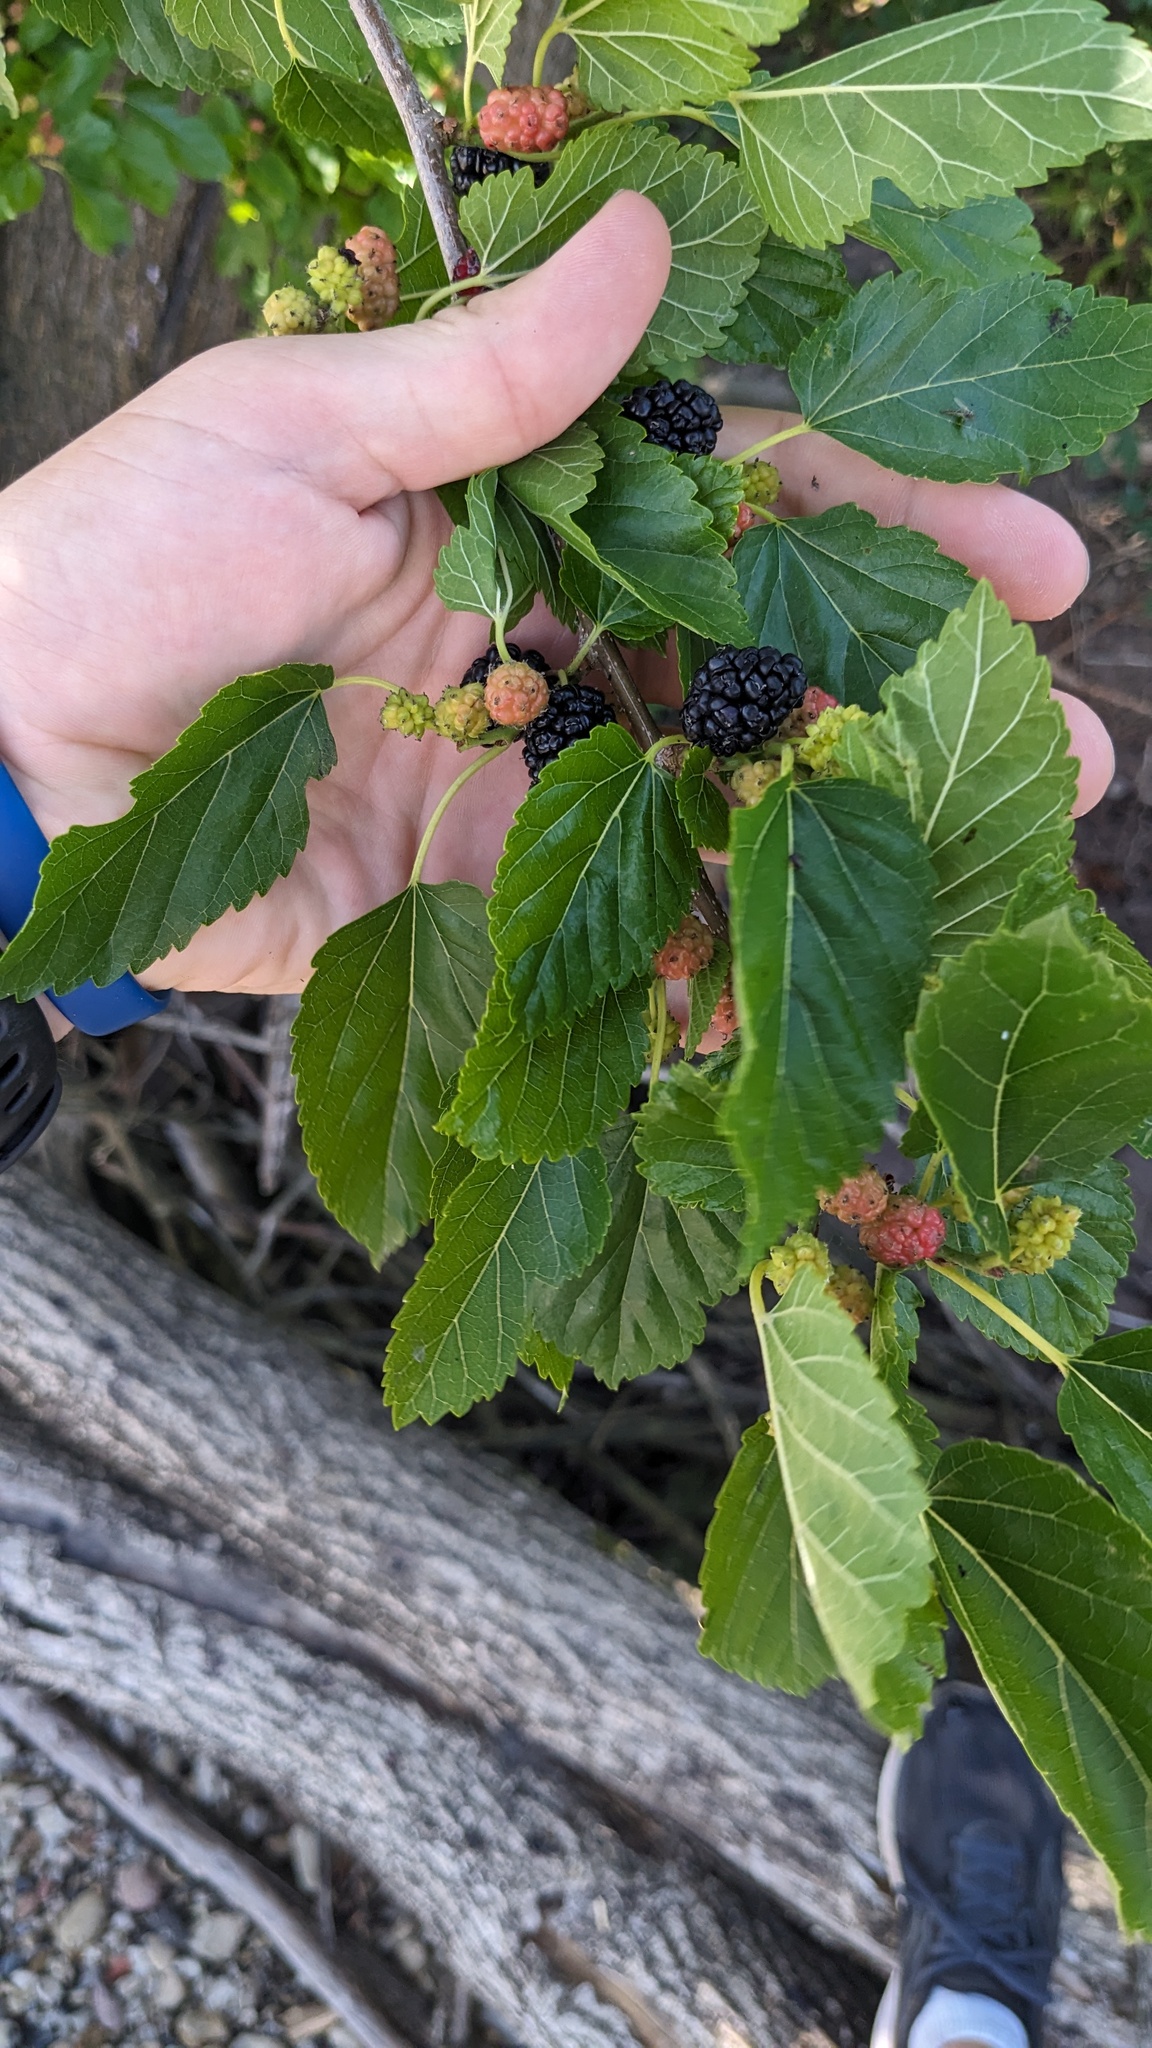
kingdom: Plantae
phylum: Tracheophyta
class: Magnoliopsida
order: Rosales
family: Moraceae
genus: Morus
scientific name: Morus alba
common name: White mulberry
